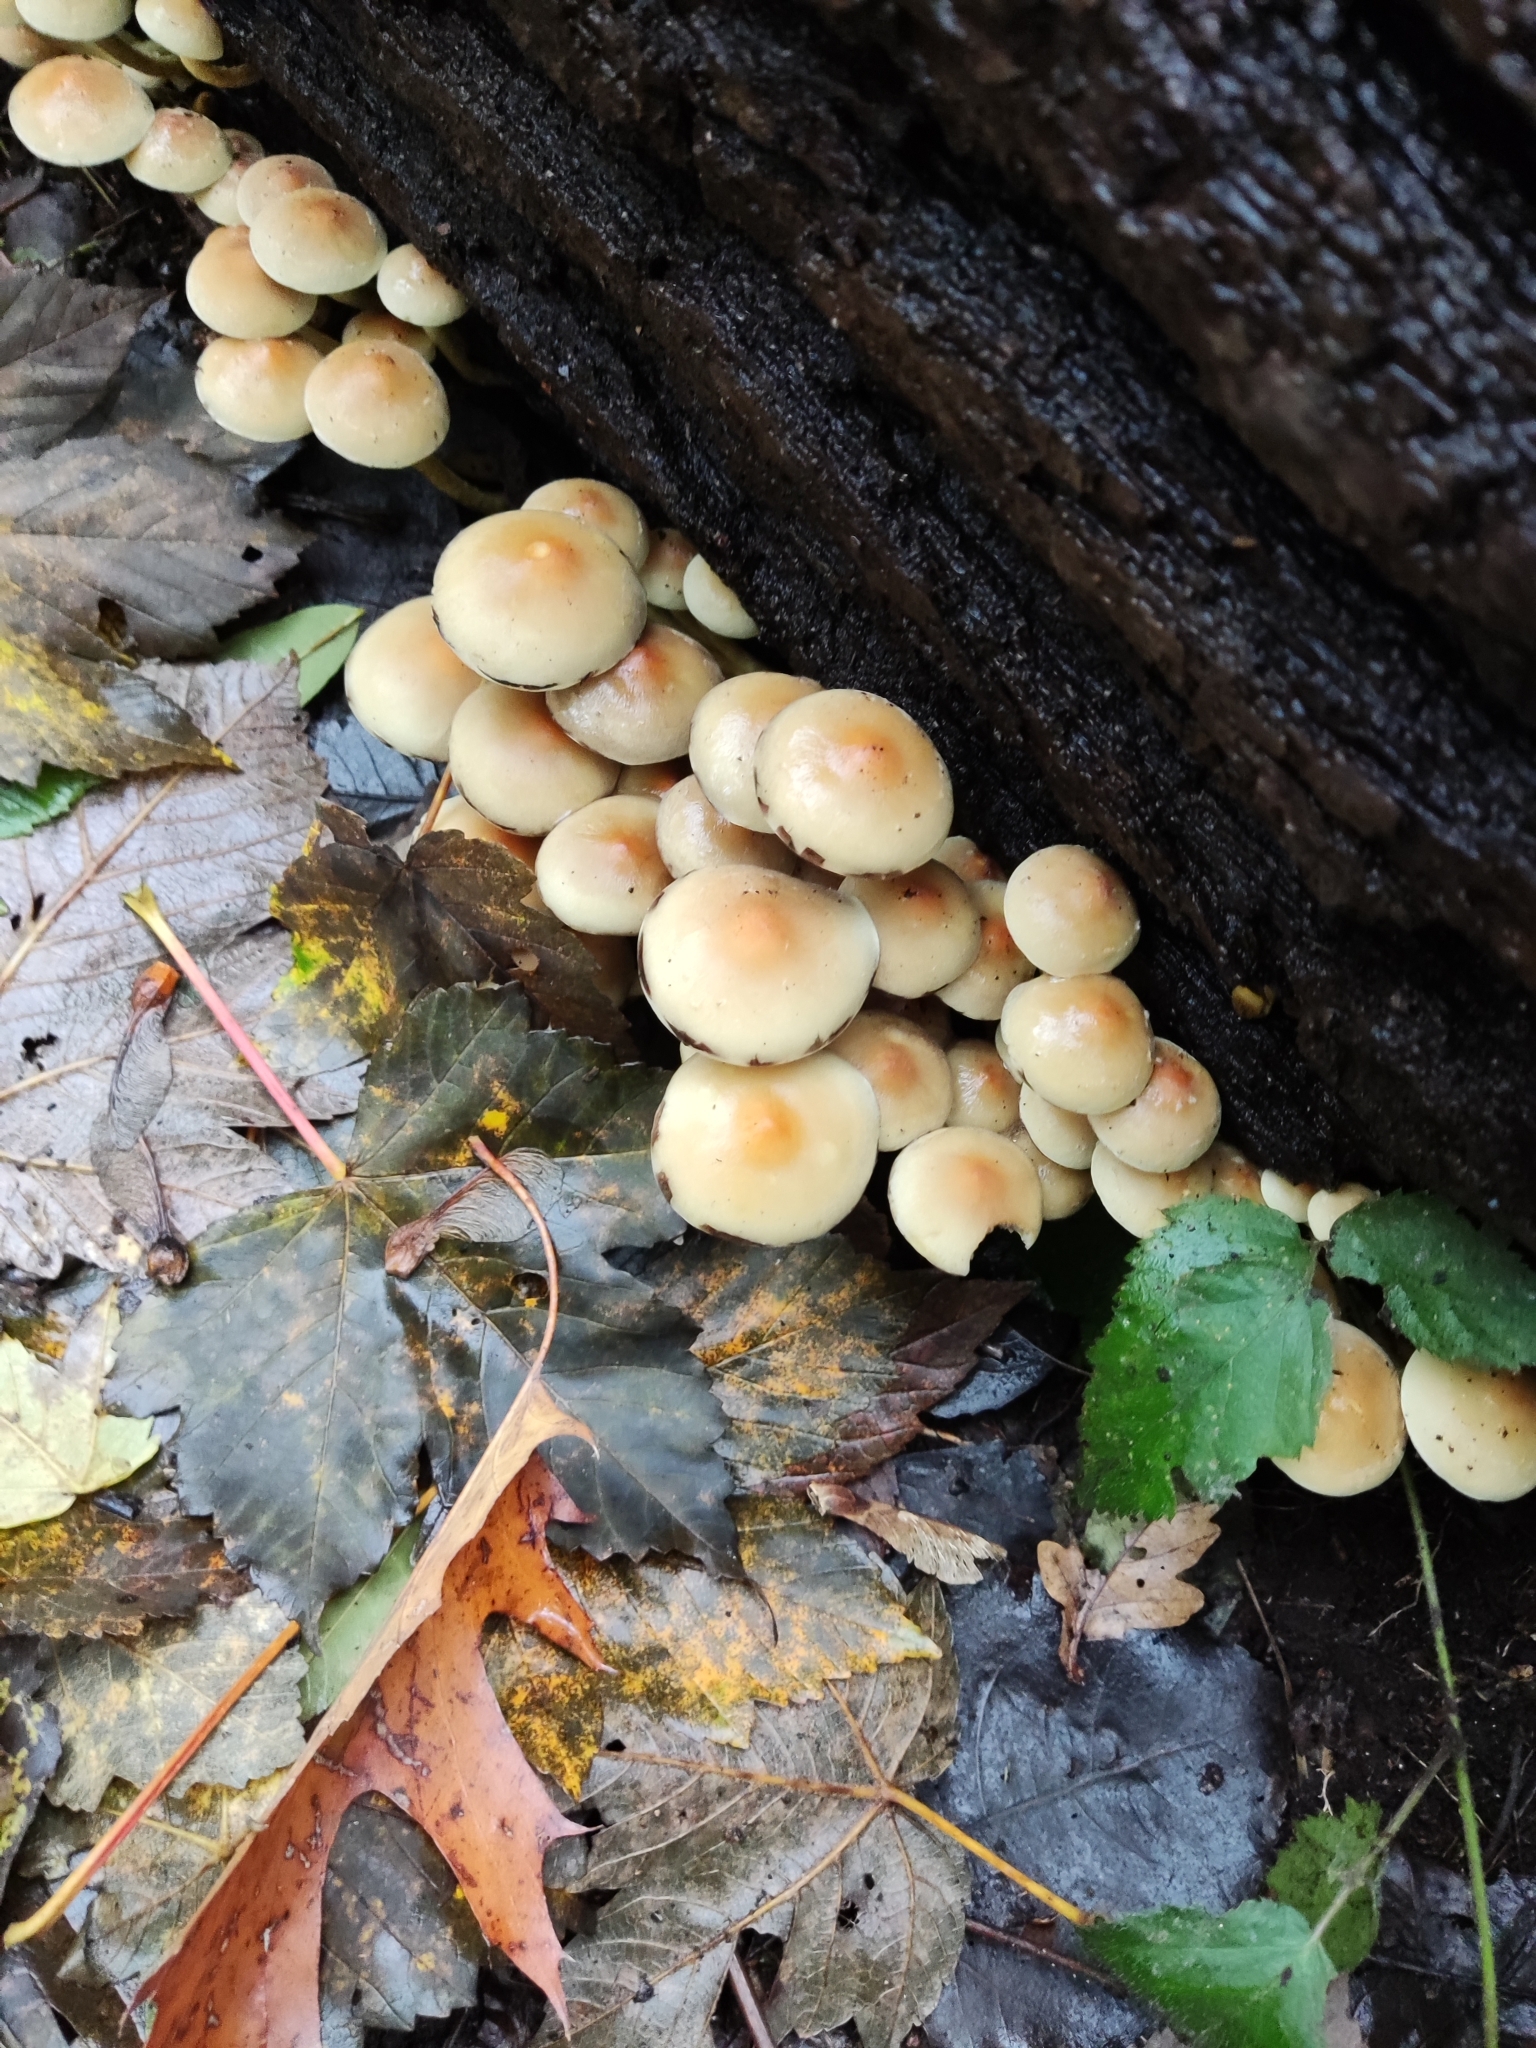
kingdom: Fungi
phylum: Basidiomycota
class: Agaricomycetes
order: Agaricales
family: Strophariaceae
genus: Hypholoma
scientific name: Hypholoma fasciculare
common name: Sulphur tuft
